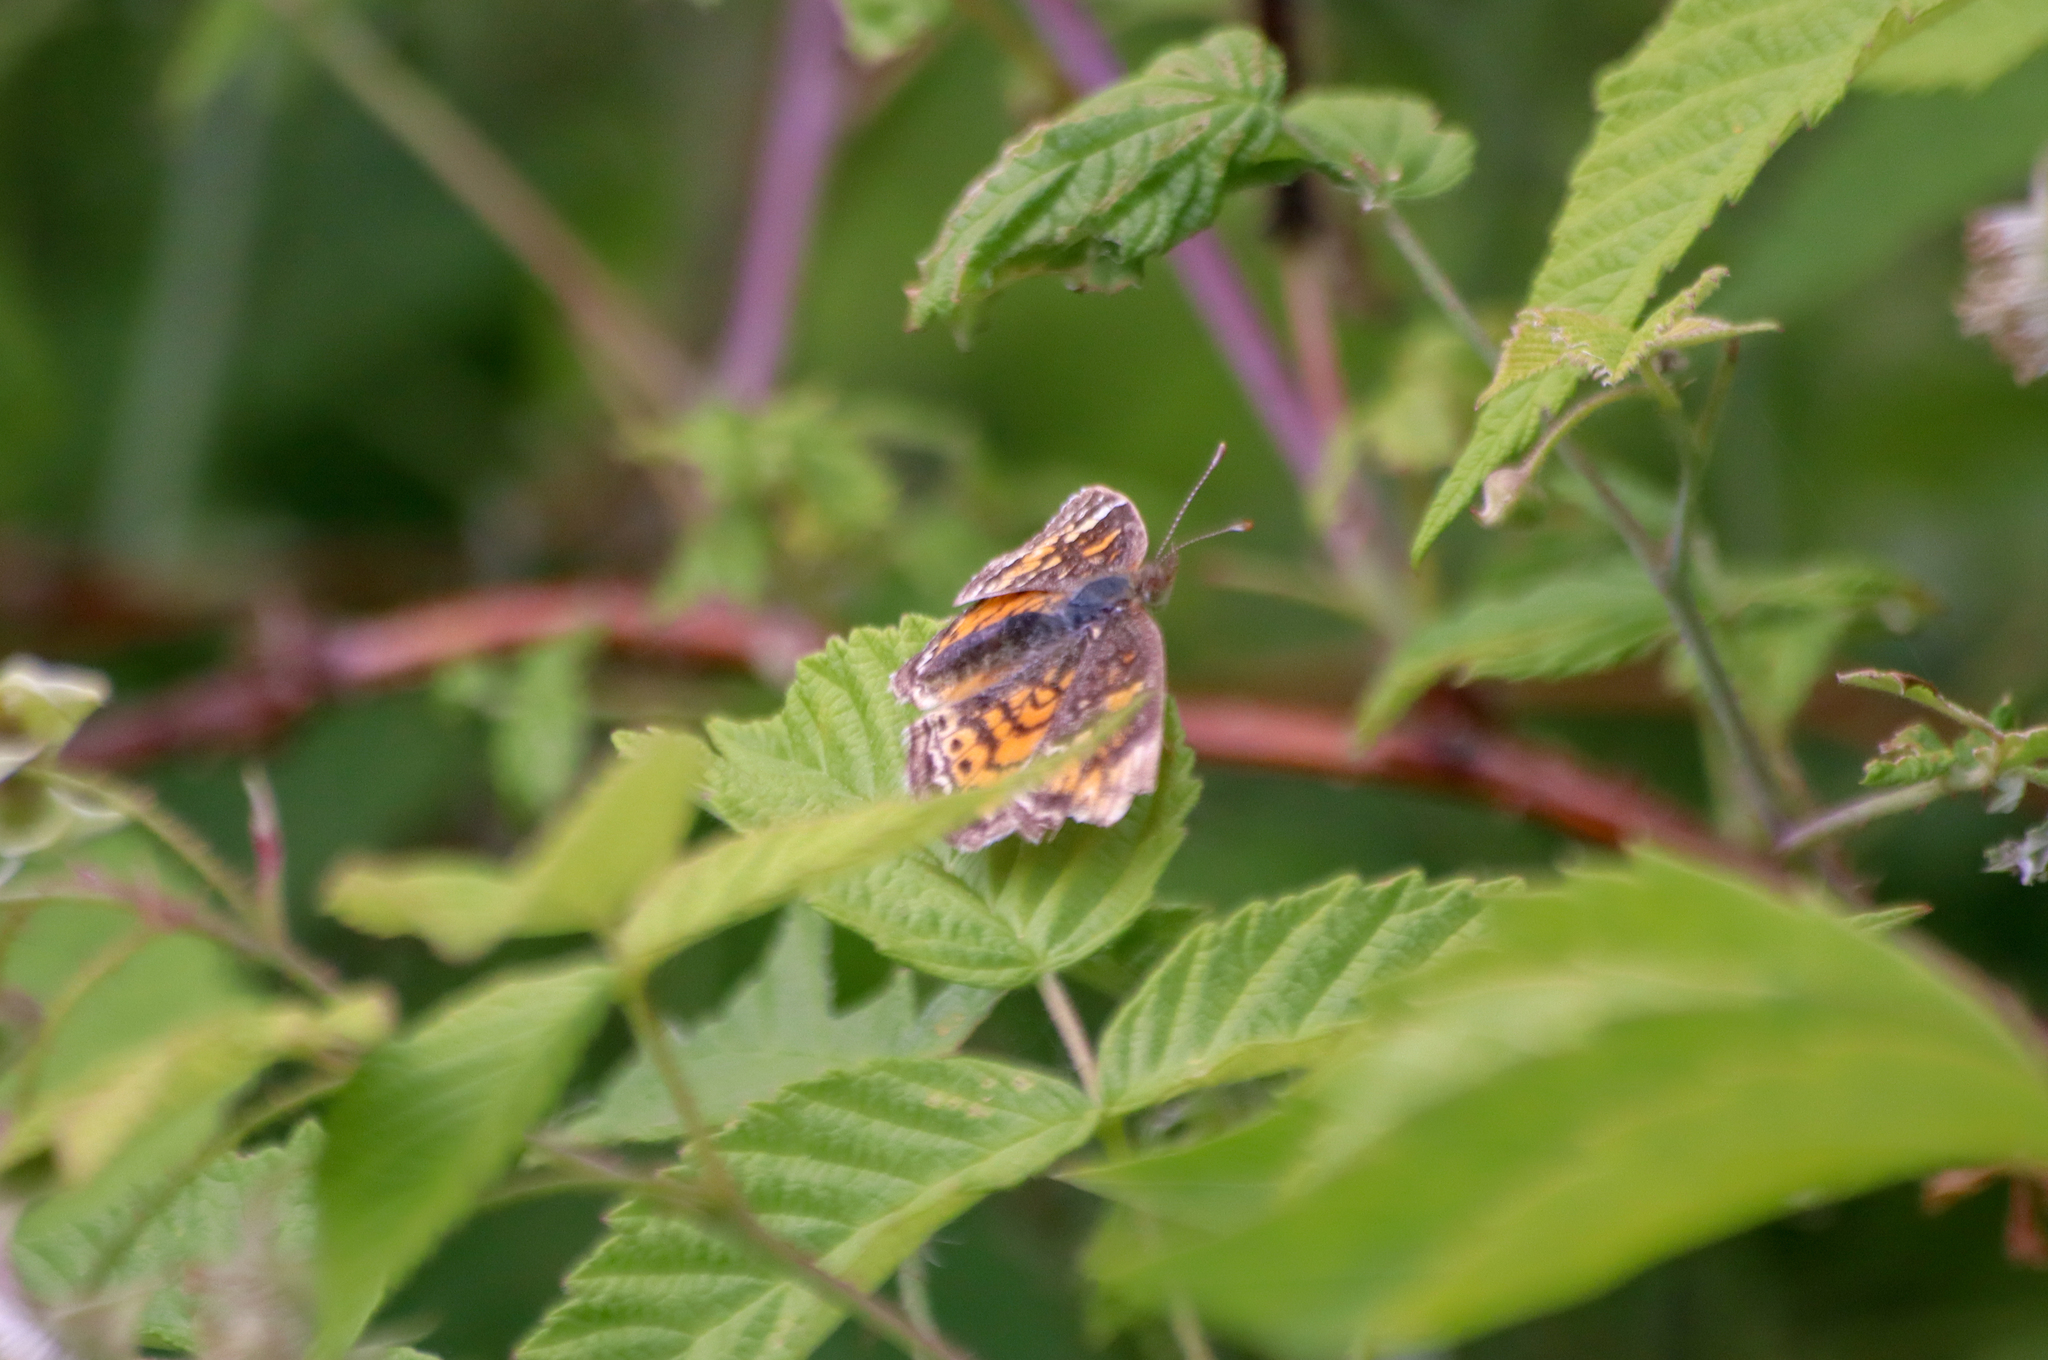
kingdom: Animalia
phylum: Arthropoda
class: Insecta
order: Lepidoptera
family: Nymphalidae
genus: Phyciodes
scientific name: Phyciodes tharos
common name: Pearl crescent
